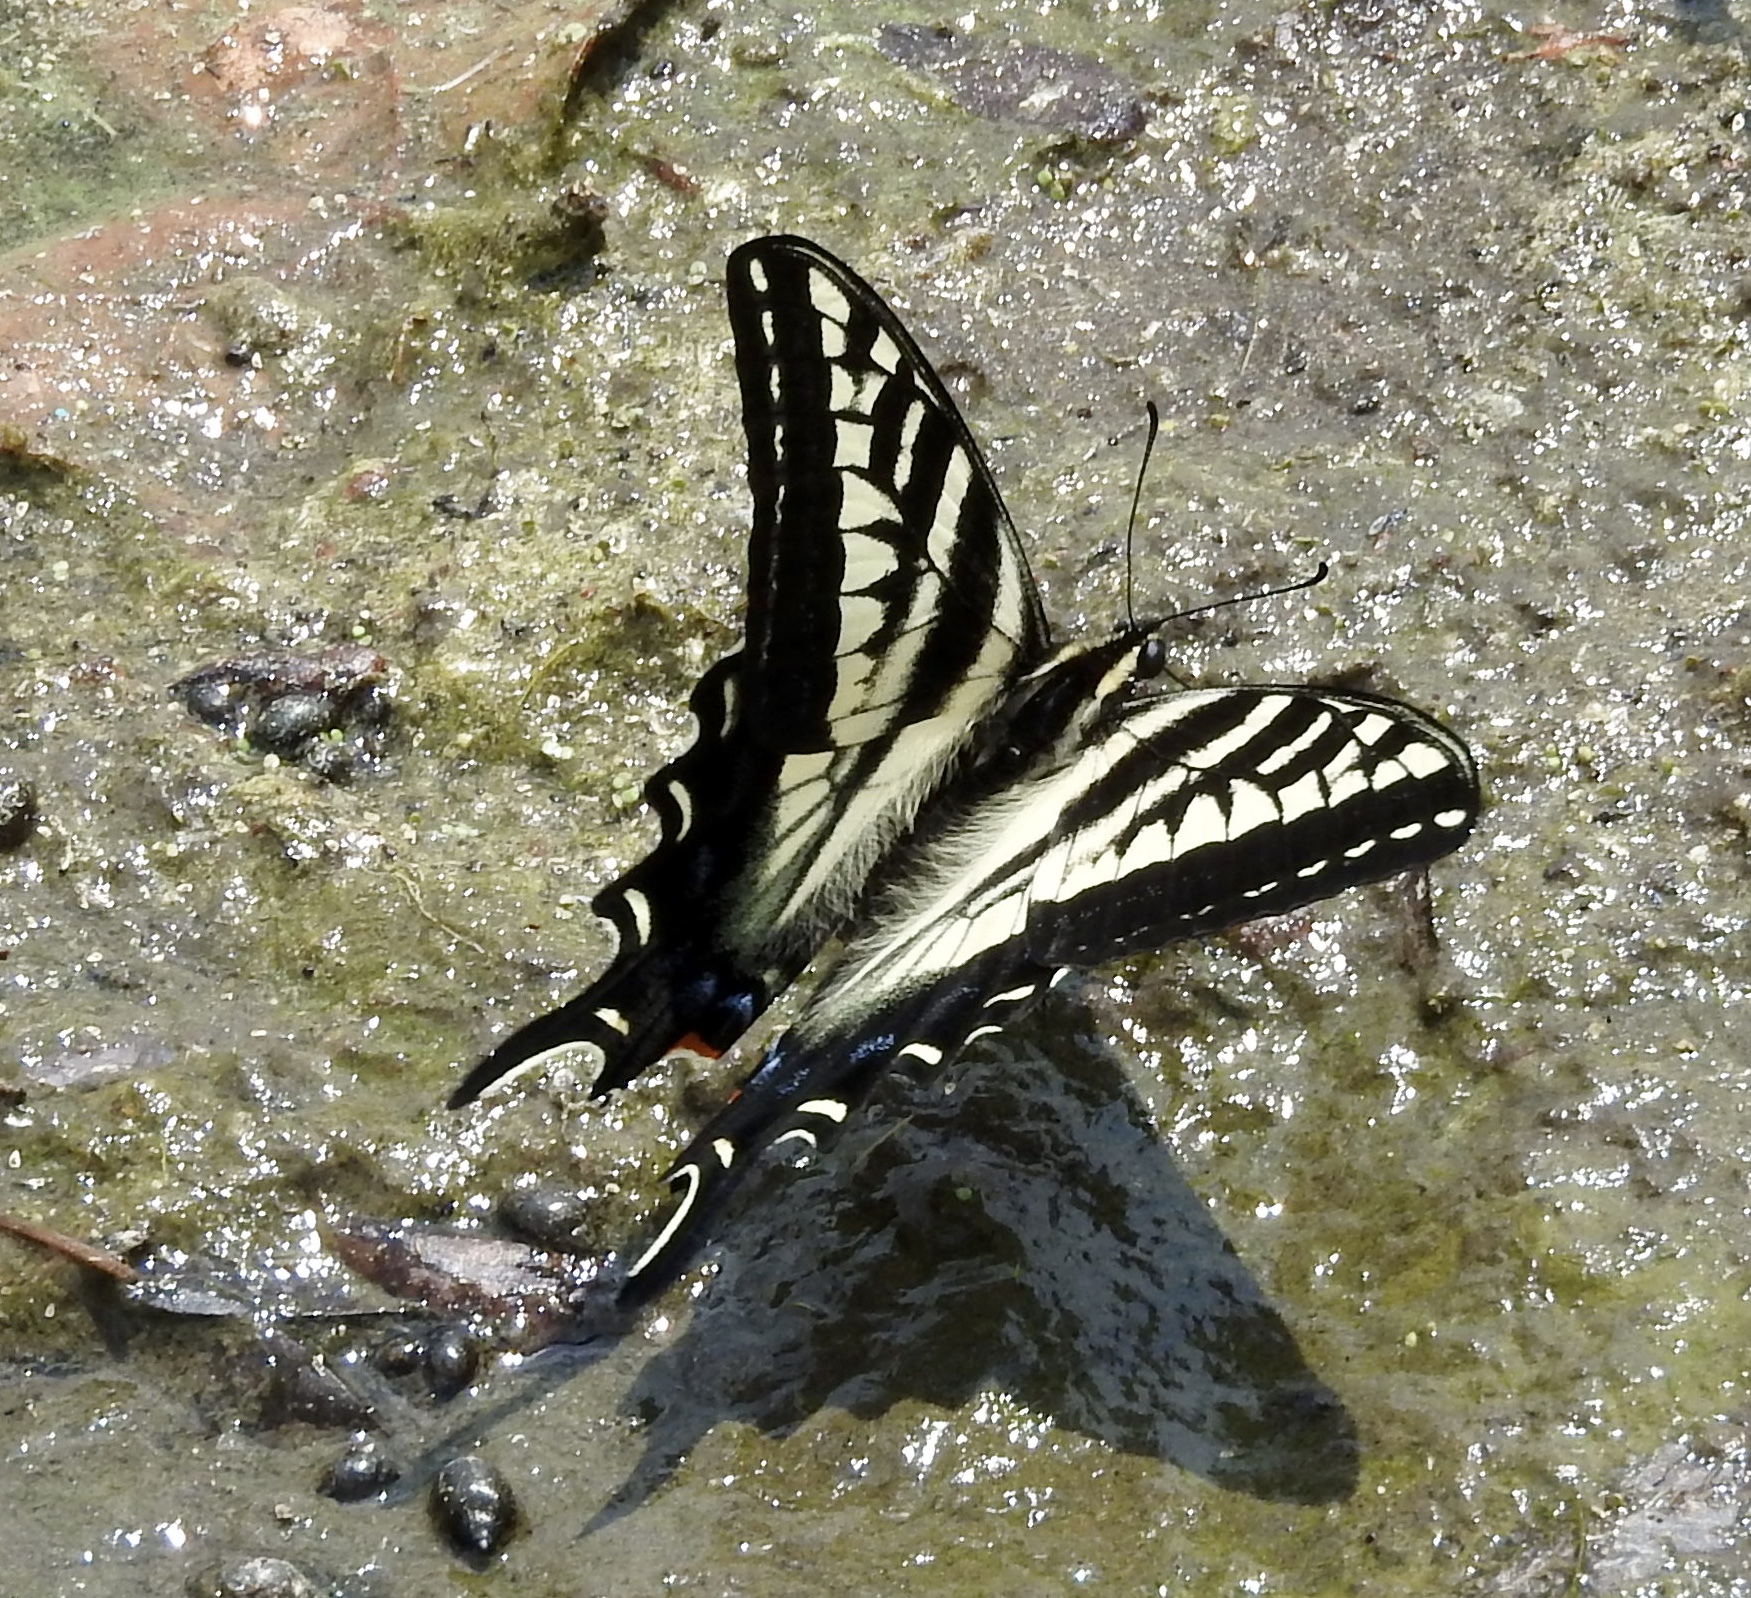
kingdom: Animalia
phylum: Arthropoda
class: Insecta
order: Lepidoptera
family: Papilionidae
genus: Papilio
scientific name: Papilio eurymedon
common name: Pale tiger swallowtail
